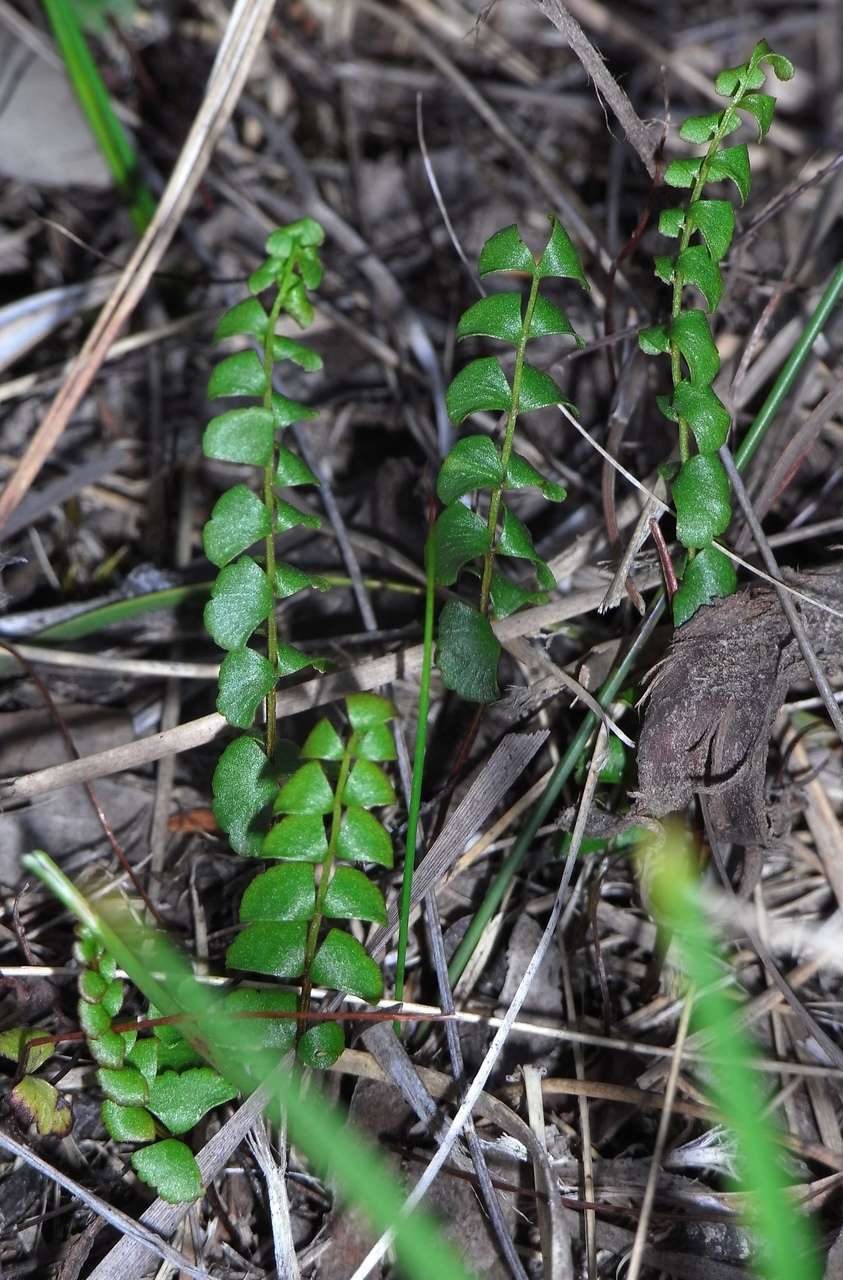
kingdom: Plantae
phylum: Tracheophyta
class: Polypodiopsida
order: Polypodiales
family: Lindsaeaceae
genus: Lindsaea
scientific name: Lindsaea linearis
